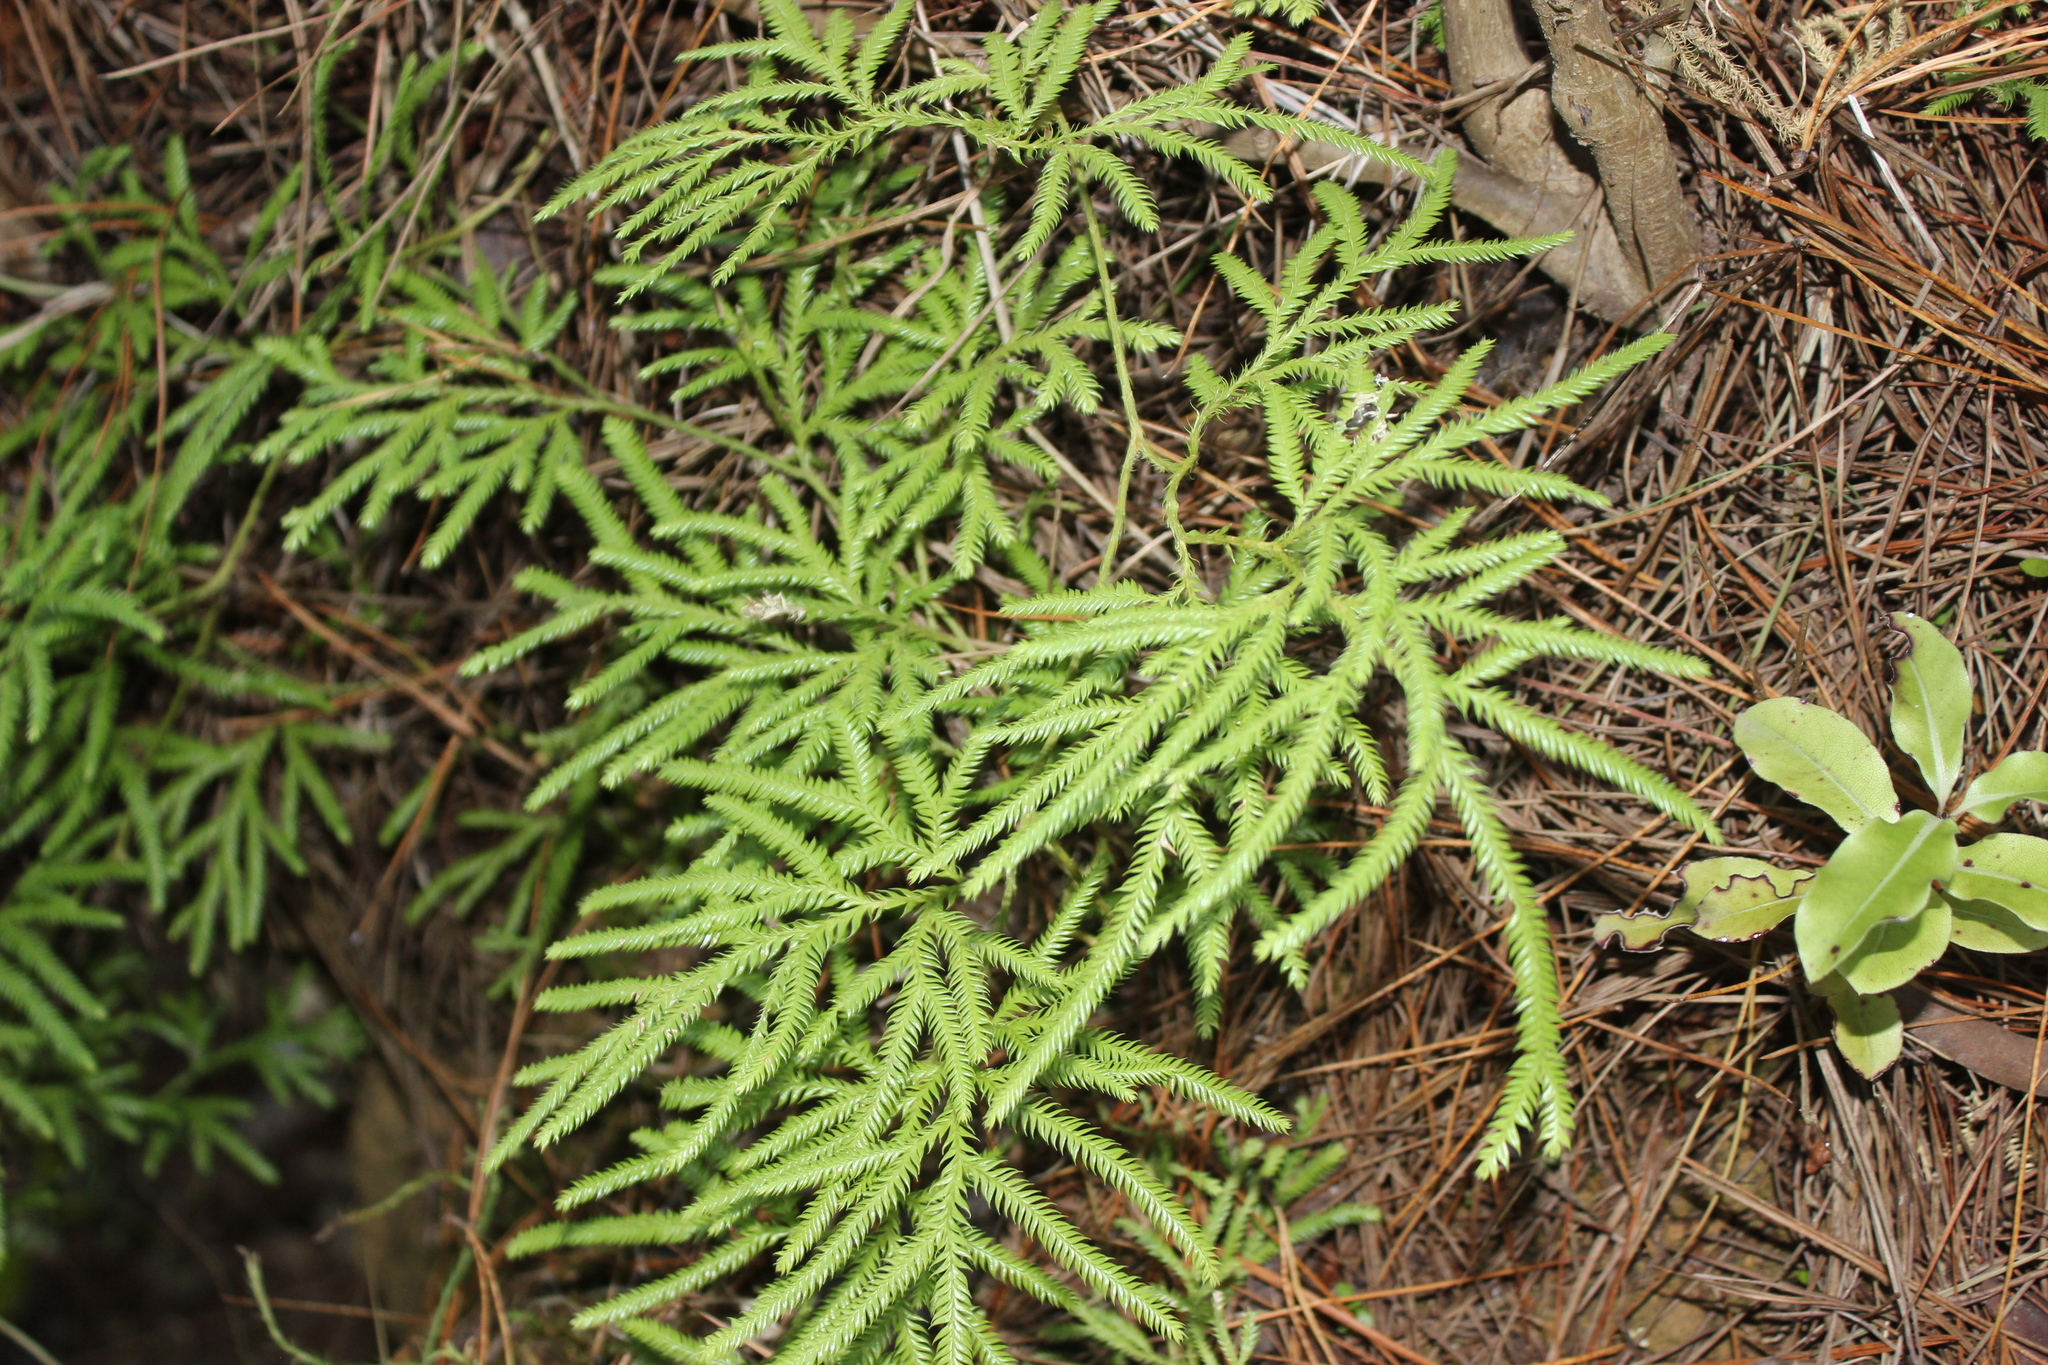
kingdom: Plantae
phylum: Tracheophyta
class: Lycopodiopsida
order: Lycopodiales
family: Lycopodiaceae
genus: Lycopodium
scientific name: Lycopodium volubile
